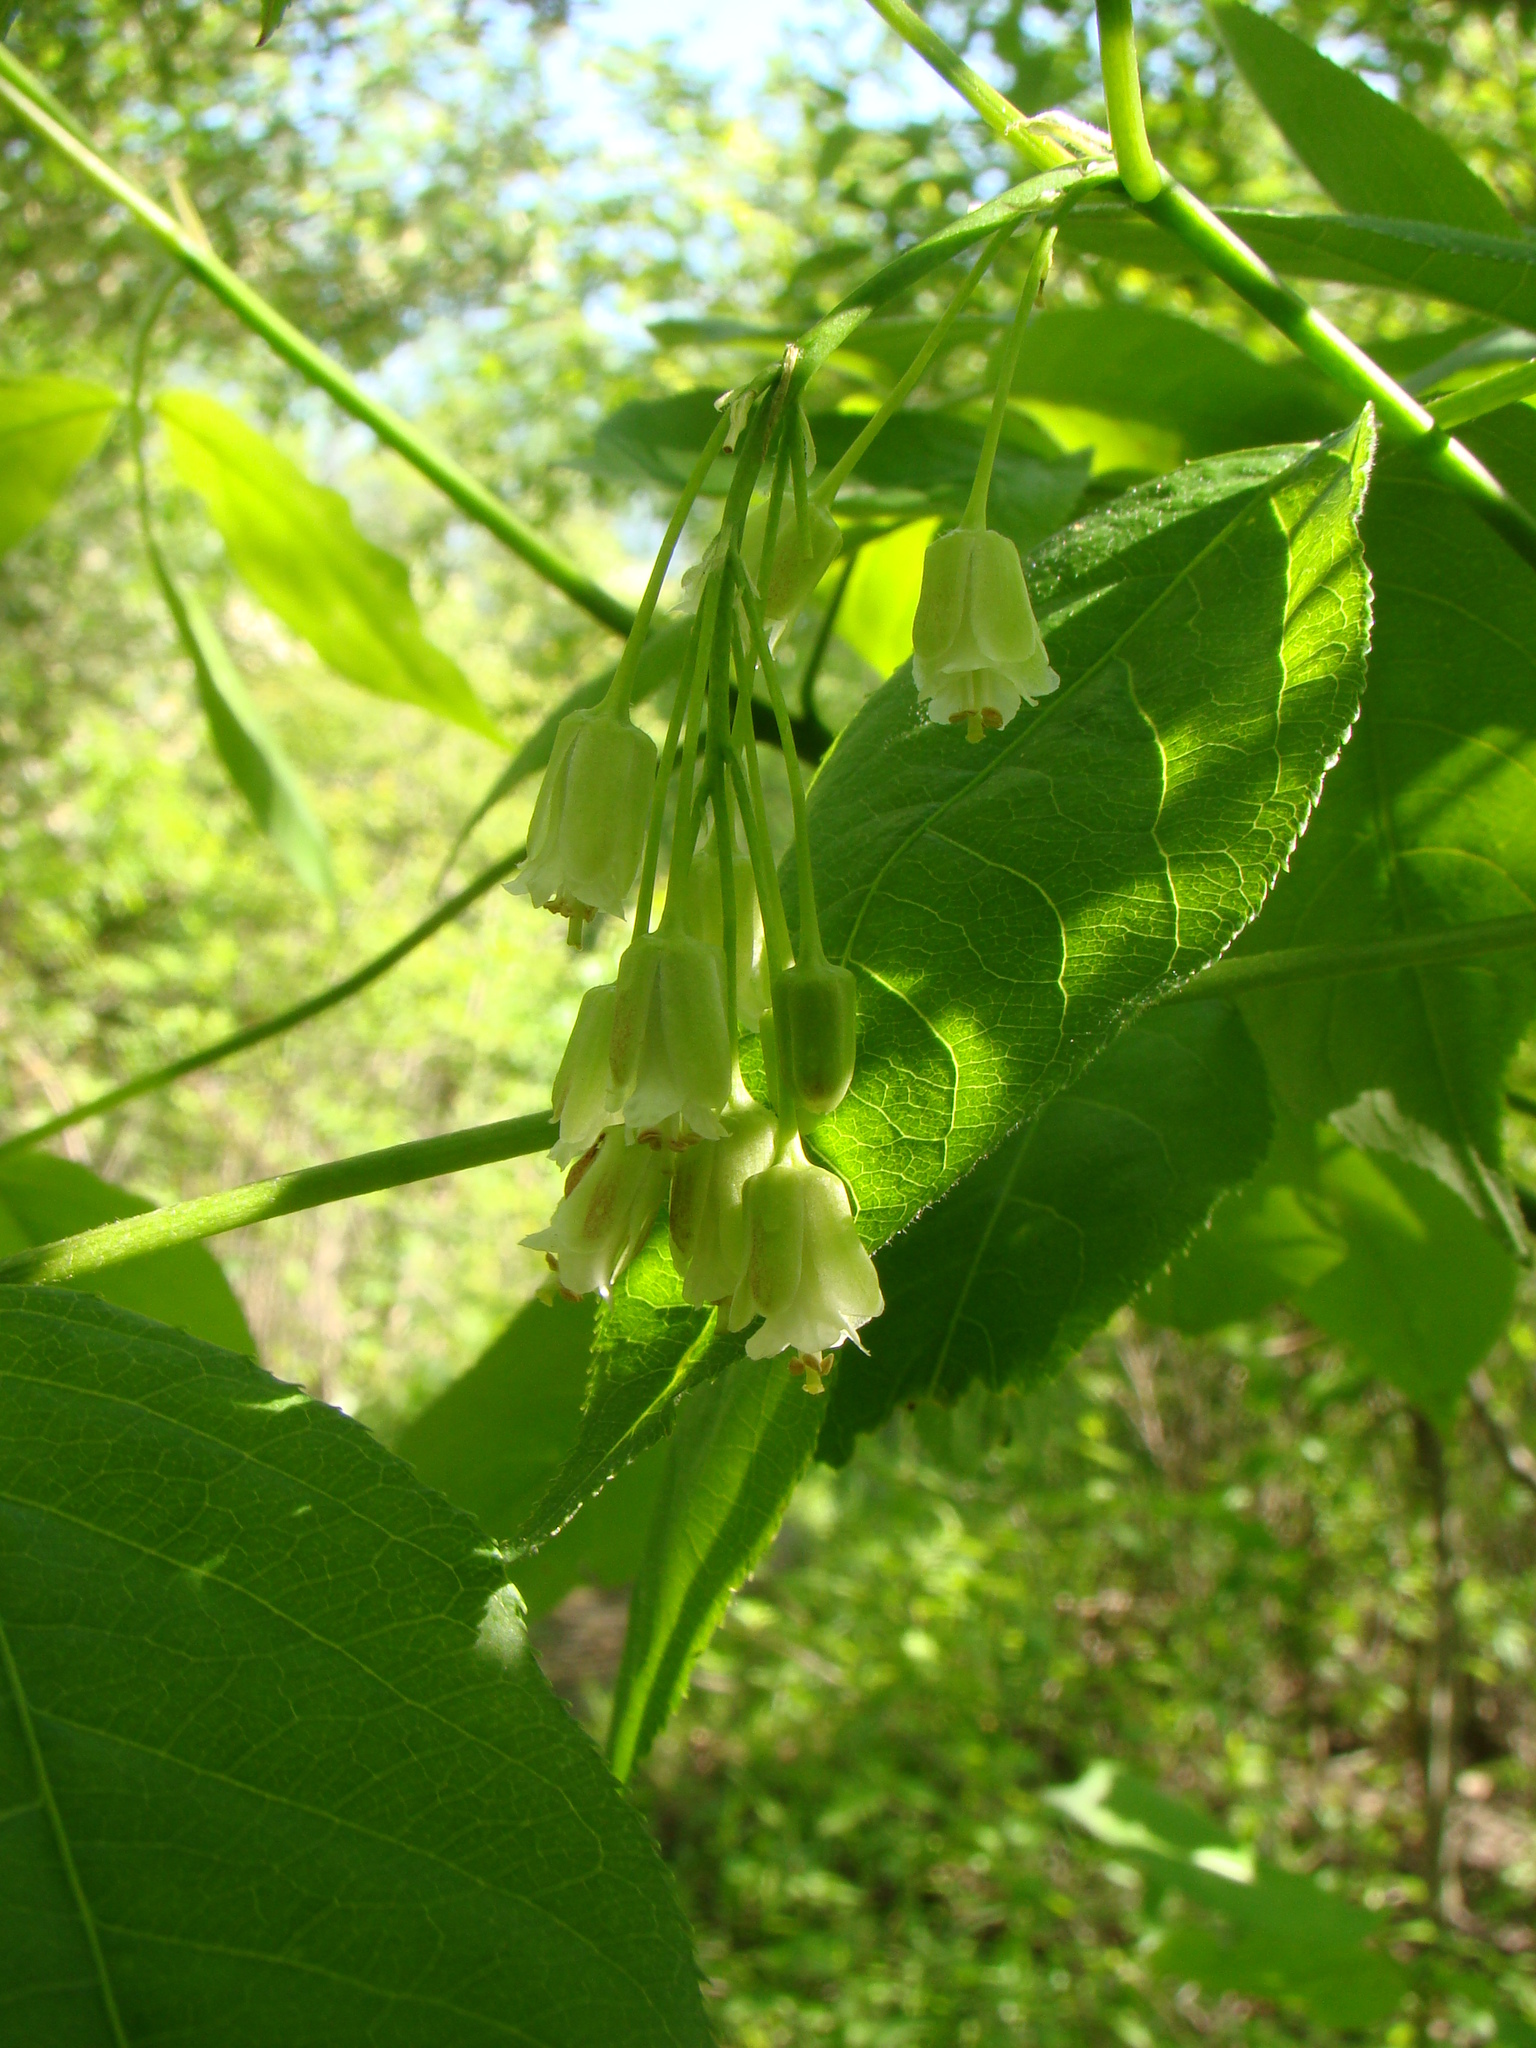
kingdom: Plantae
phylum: Tracheophyta
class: Magnoliopsida
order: Crossosomatales
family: Staphyleaceae
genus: Staphylea
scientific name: Staphylea trifolia
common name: American bladdernut
